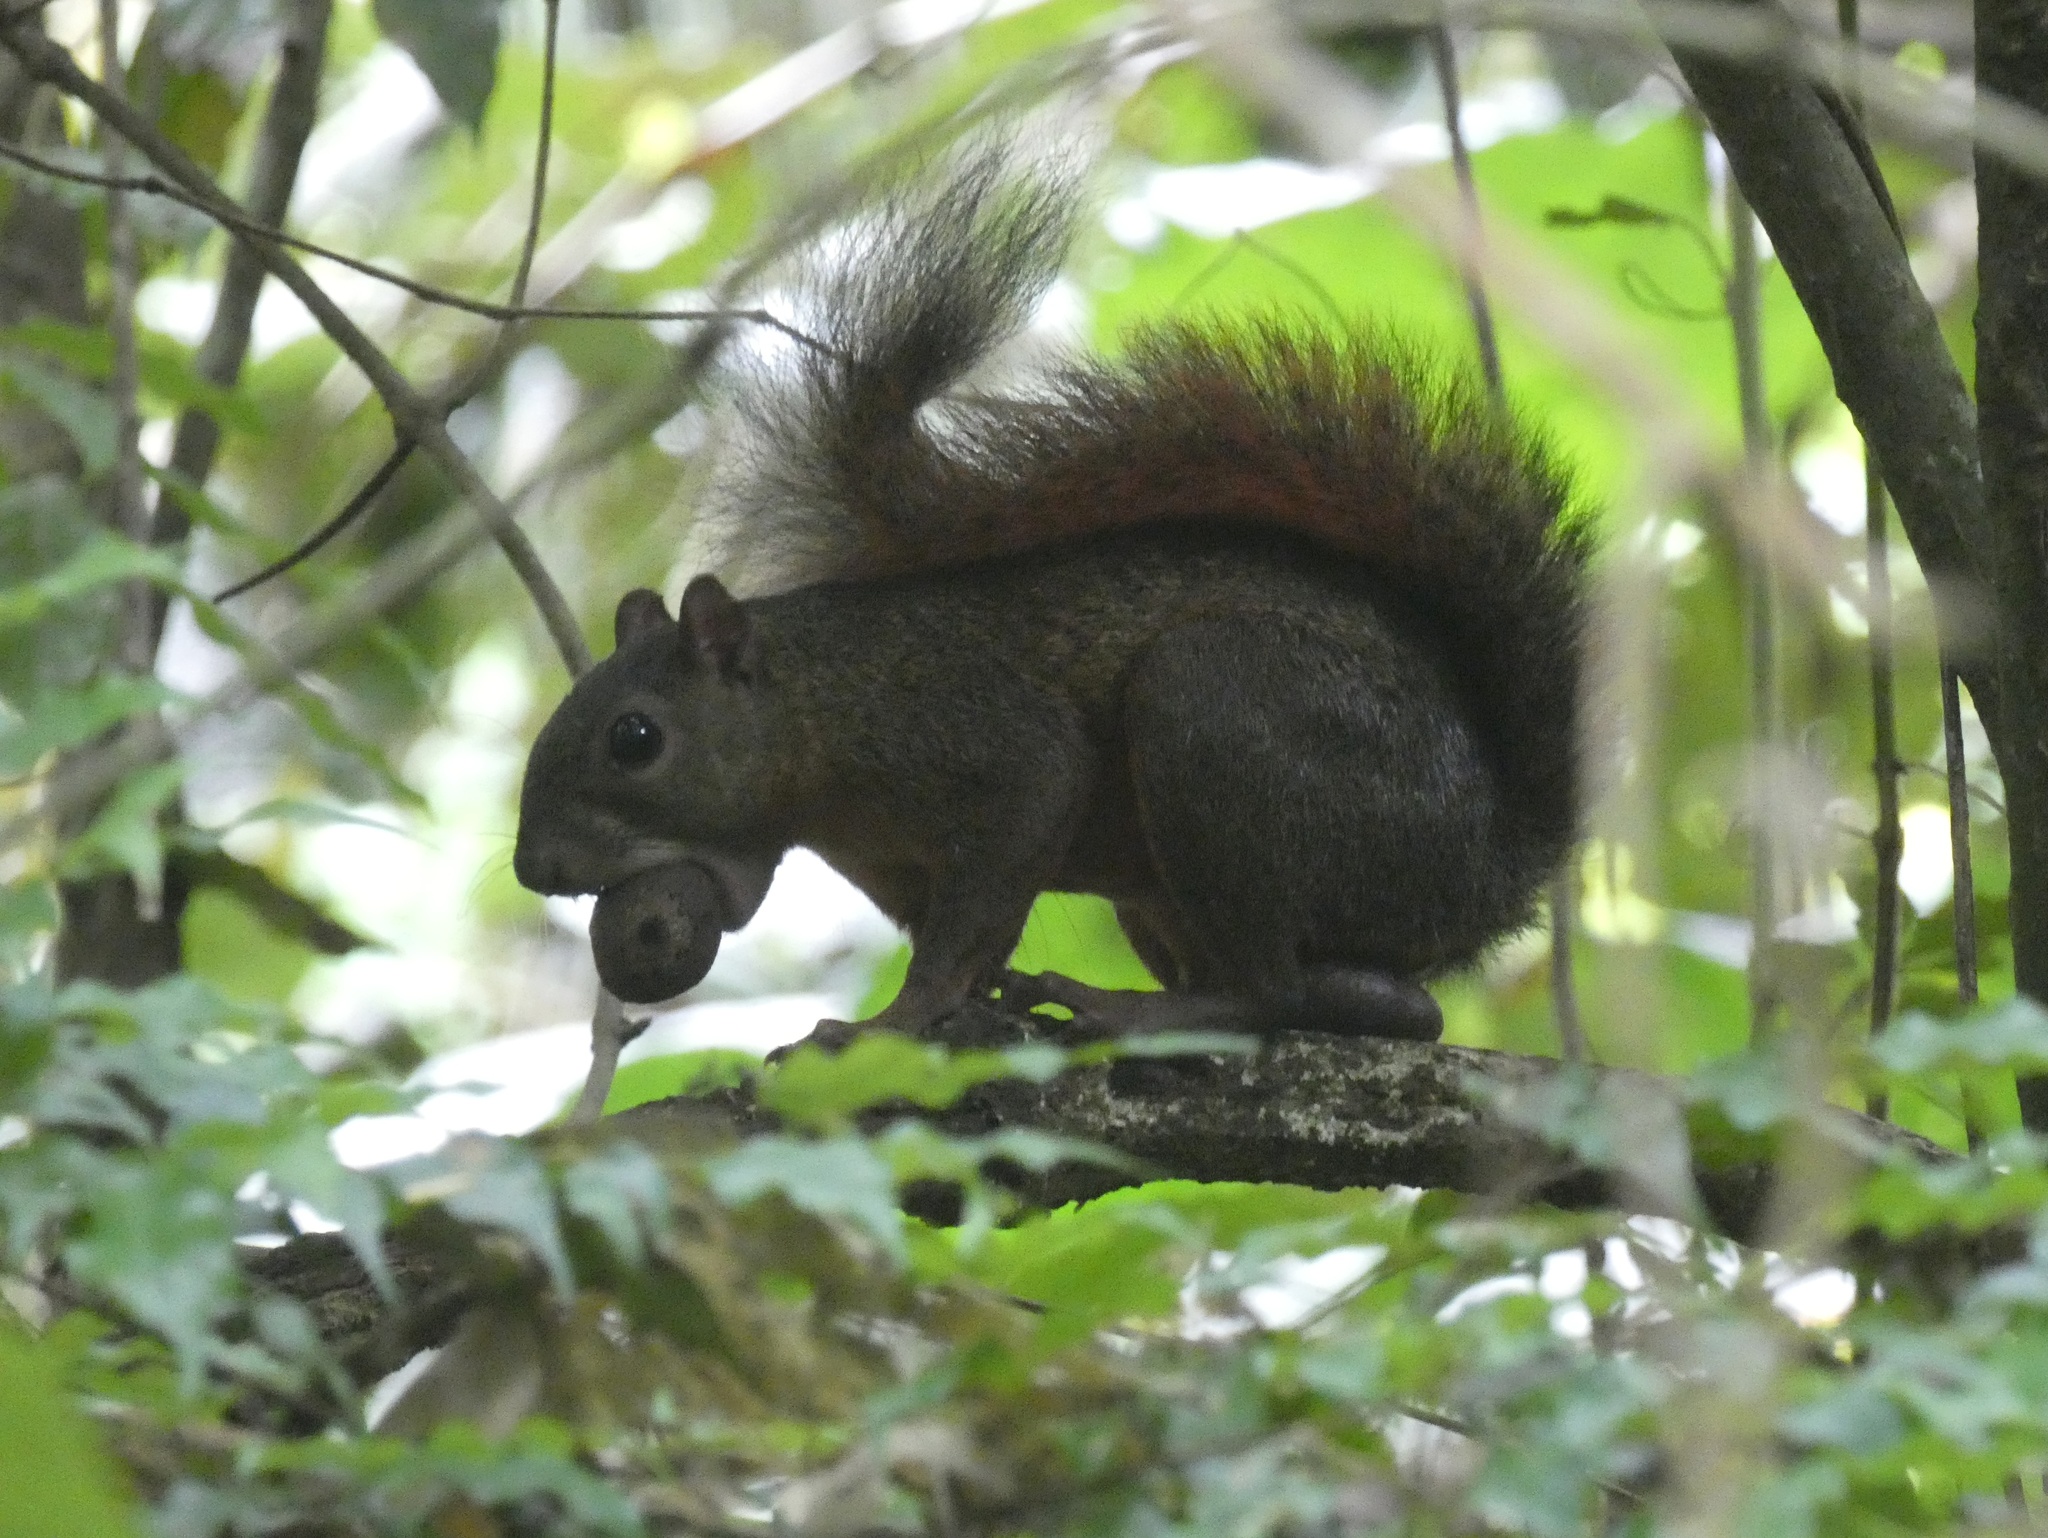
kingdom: Animalia
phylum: Chordata
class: Mammalia
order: Rodentia
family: Sciuridae
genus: Sciurus
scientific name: Sciurus granatensis
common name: Red-tailed squirrel
